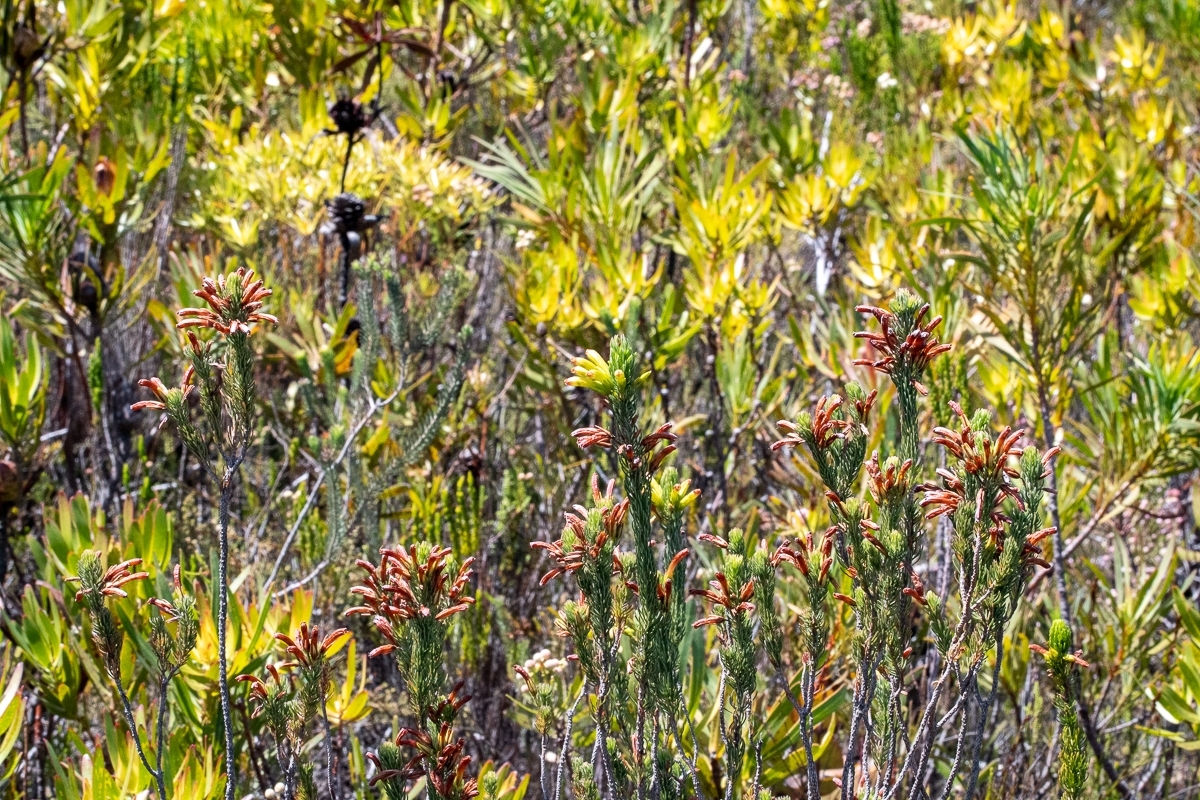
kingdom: Plantae
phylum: Tracheophyta
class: Magnoliopsida
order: Ericales
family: Ericaceae
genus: Erica
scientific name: Erica thomae
